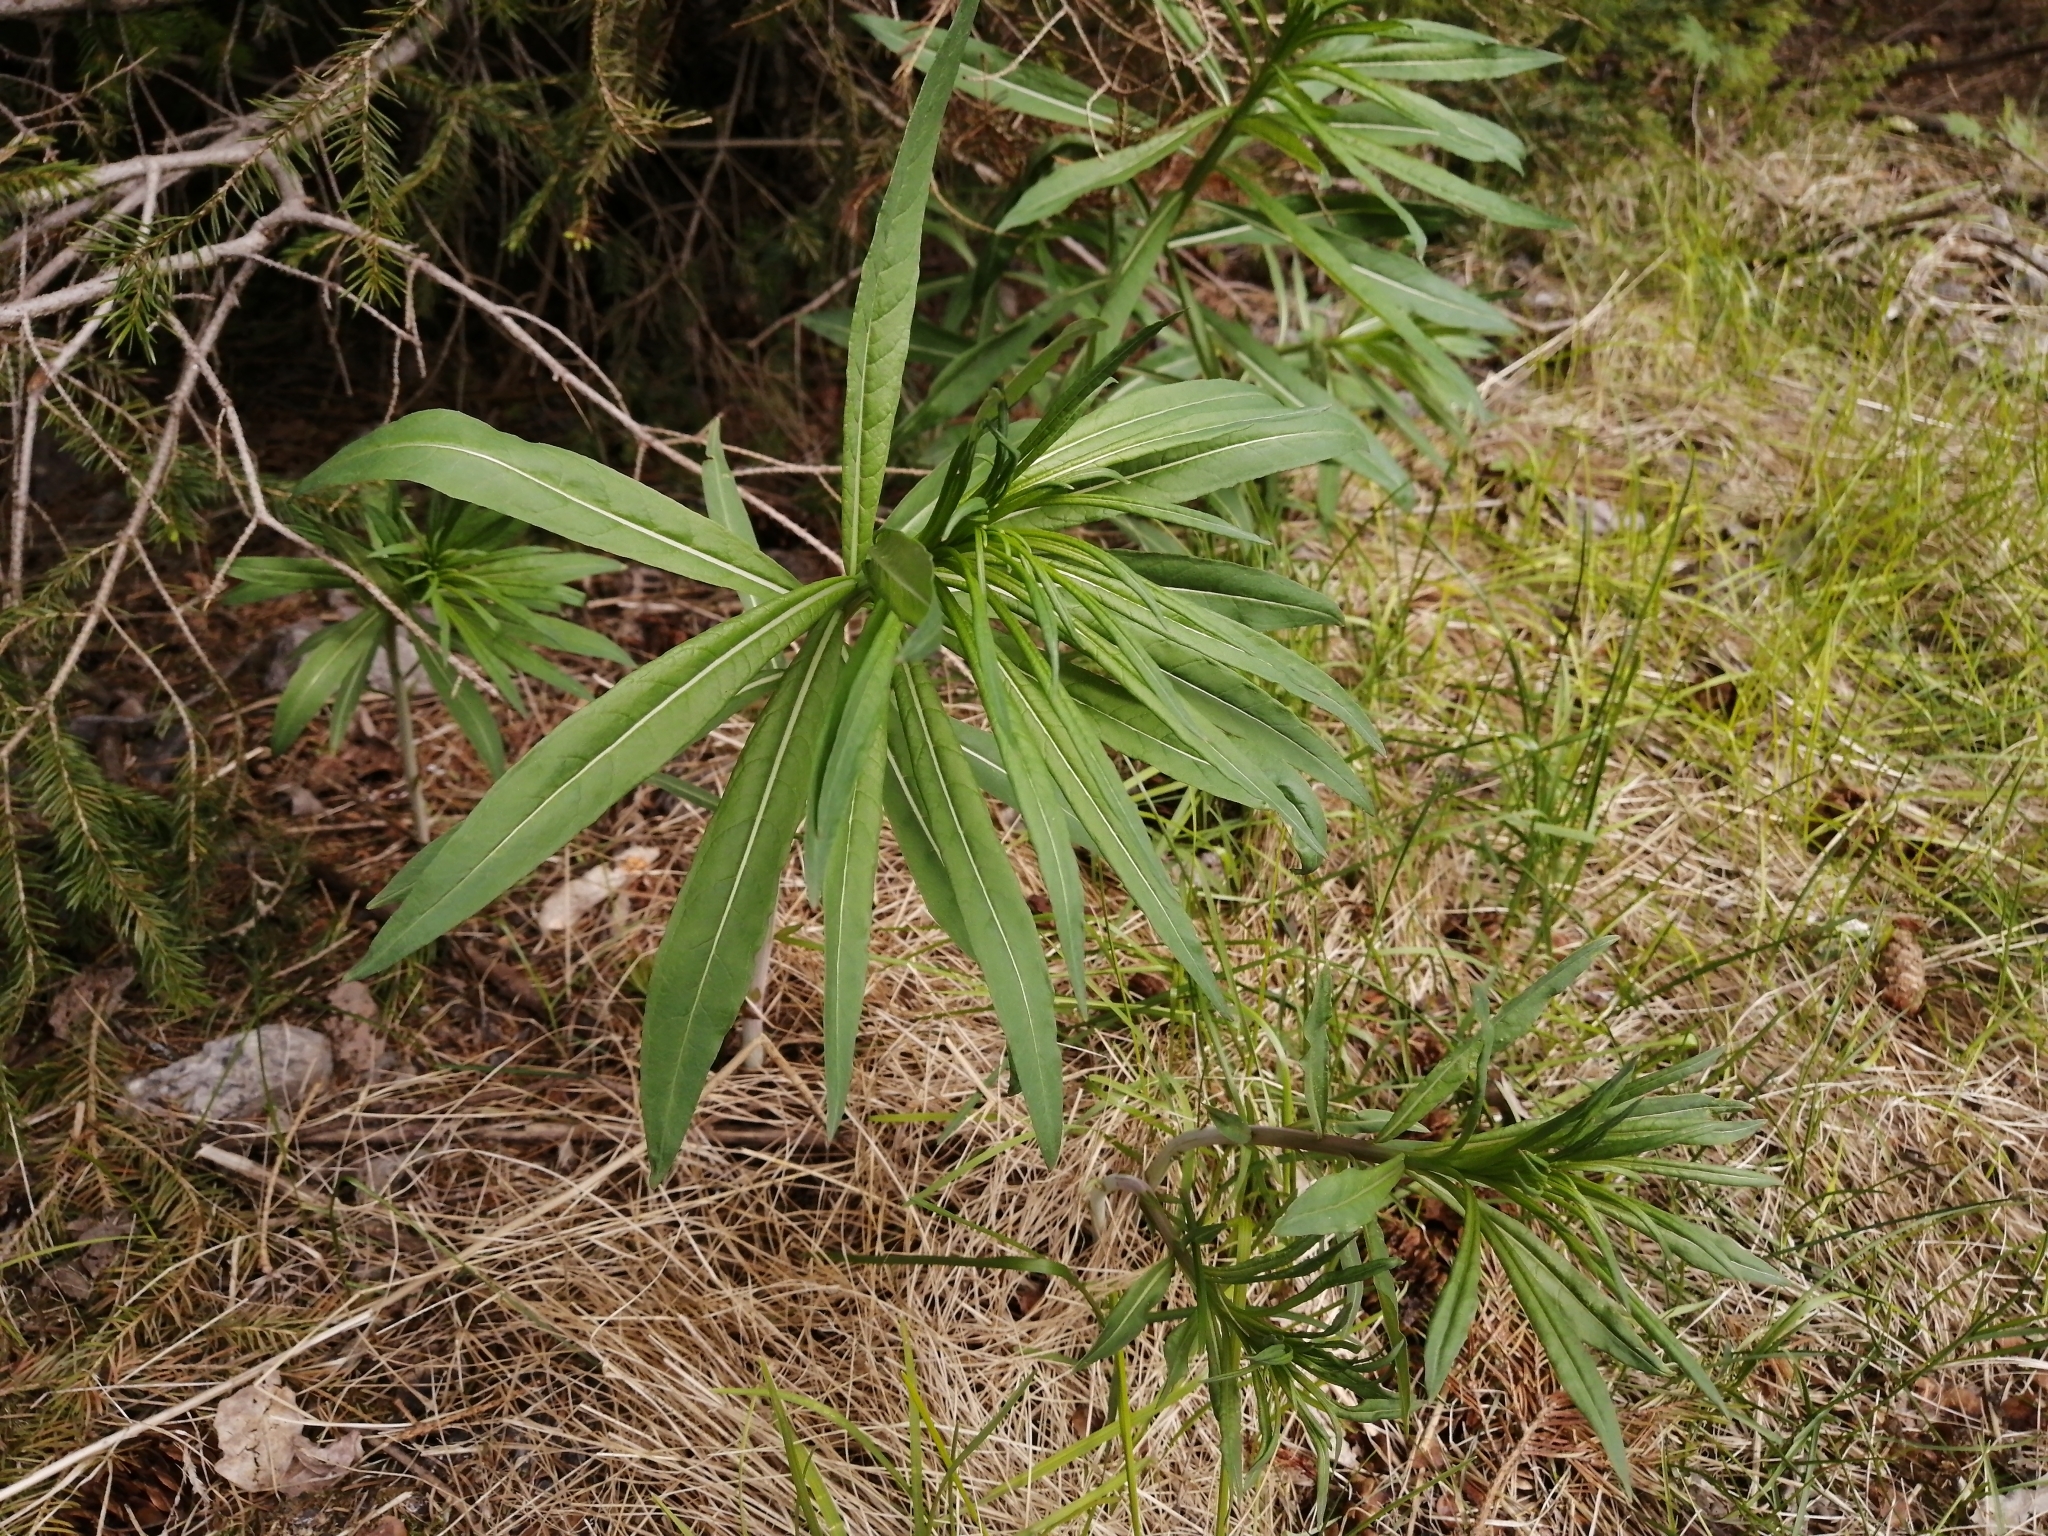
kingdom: Plantae
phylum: Tracheophyta
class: Magnoliopsida
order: Myrtales
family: Onagraceae
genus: Chamaenerion
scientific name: Chamaenerion angustifolium
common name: Fireweed
